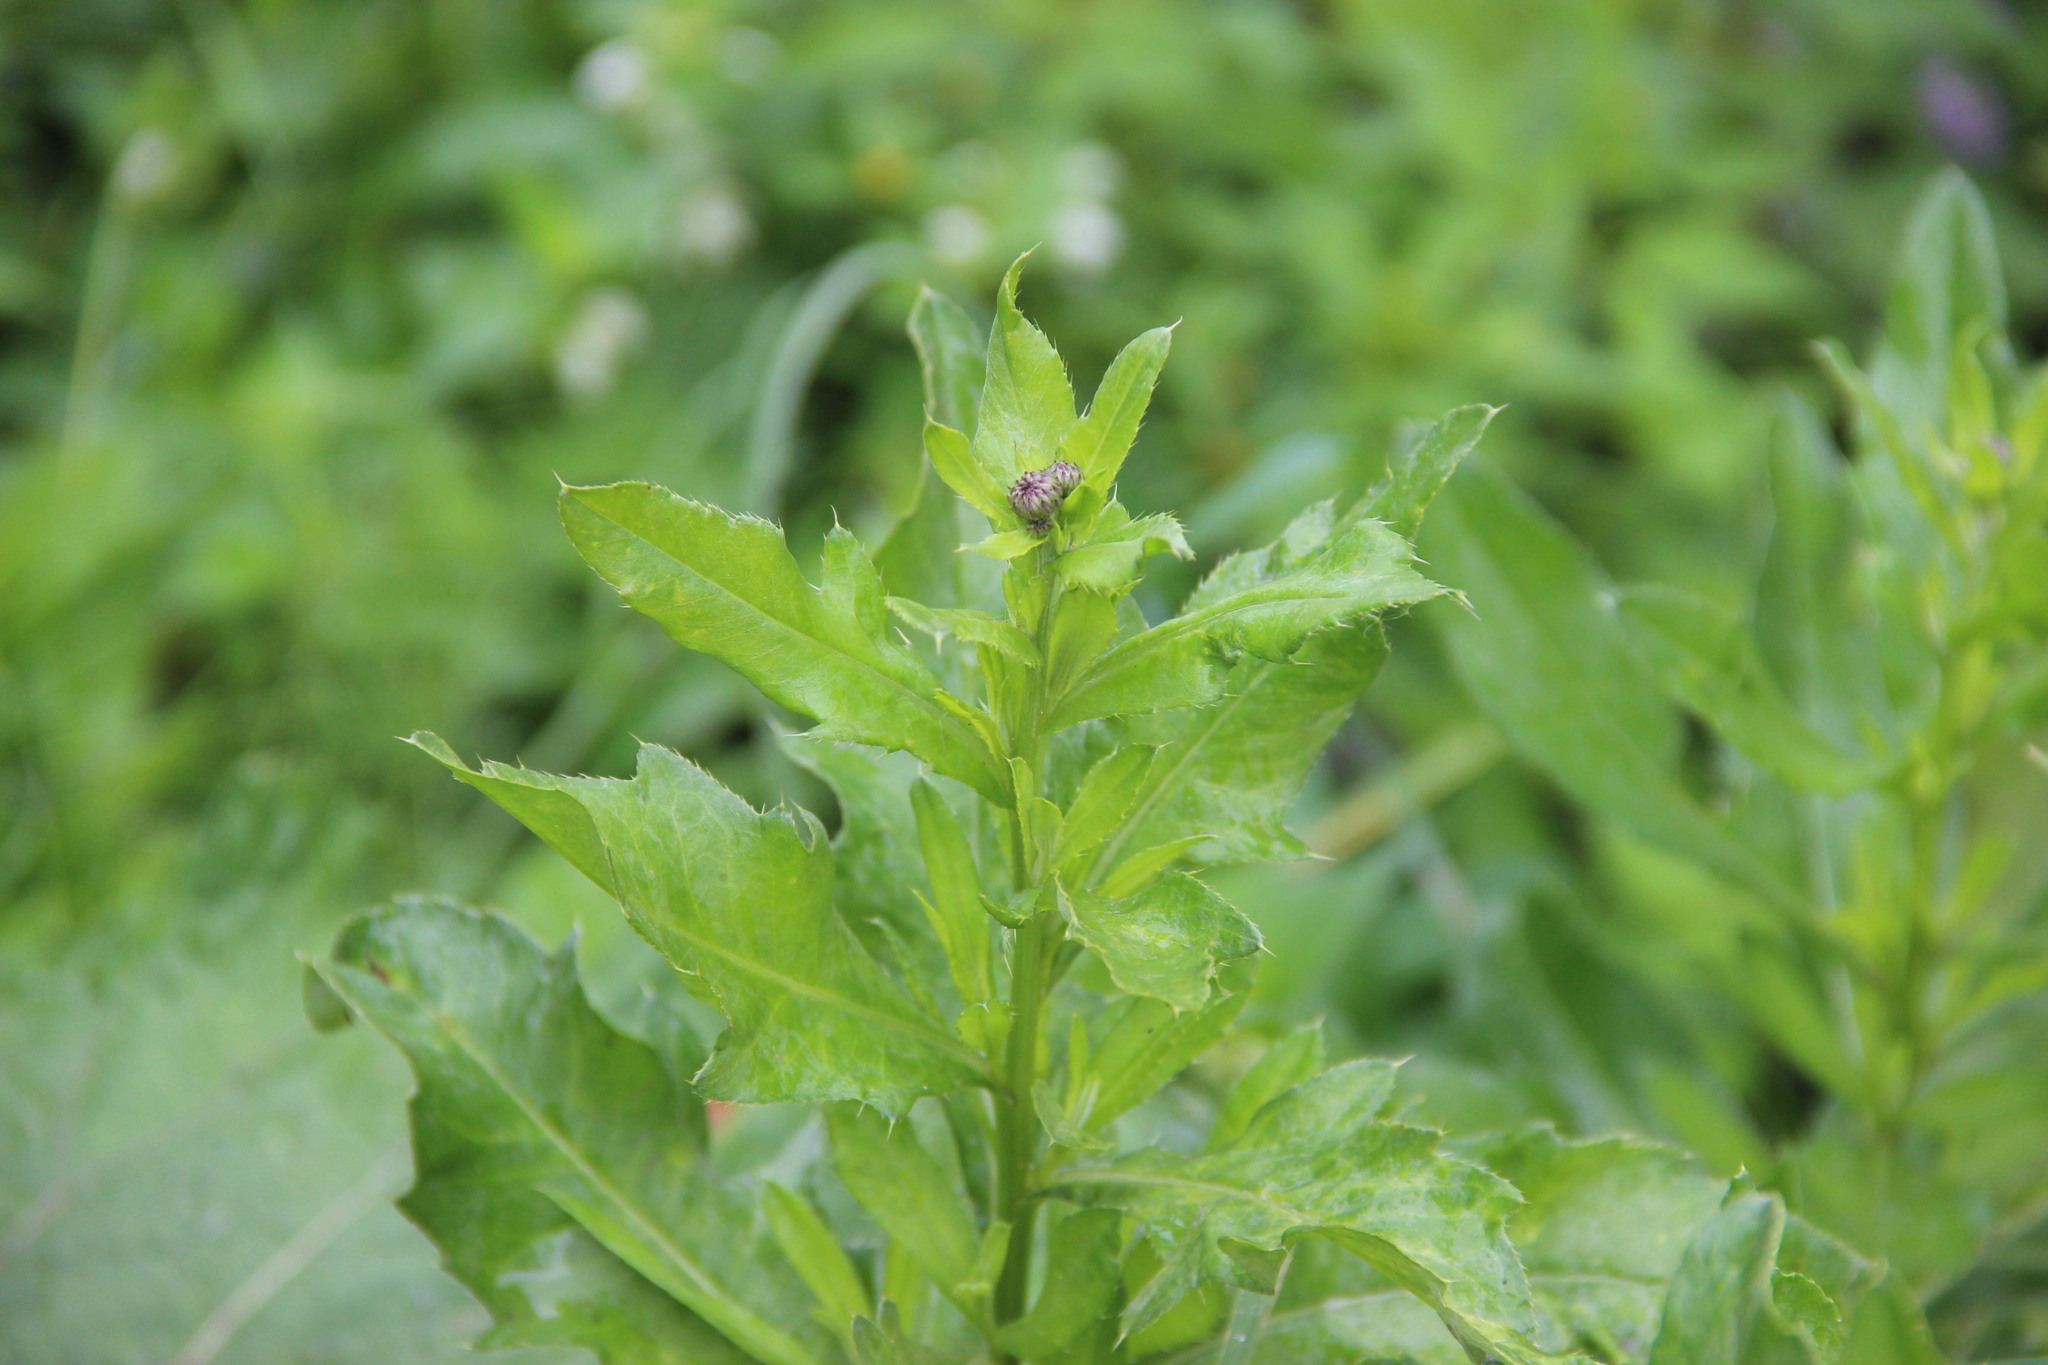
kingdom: Plantae
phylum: Tracheophyta
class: Magnoliopsida
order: Asterales
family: Asteraceae
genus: Cirsium
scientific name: Cirsium arvense
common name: Creeping thistle
